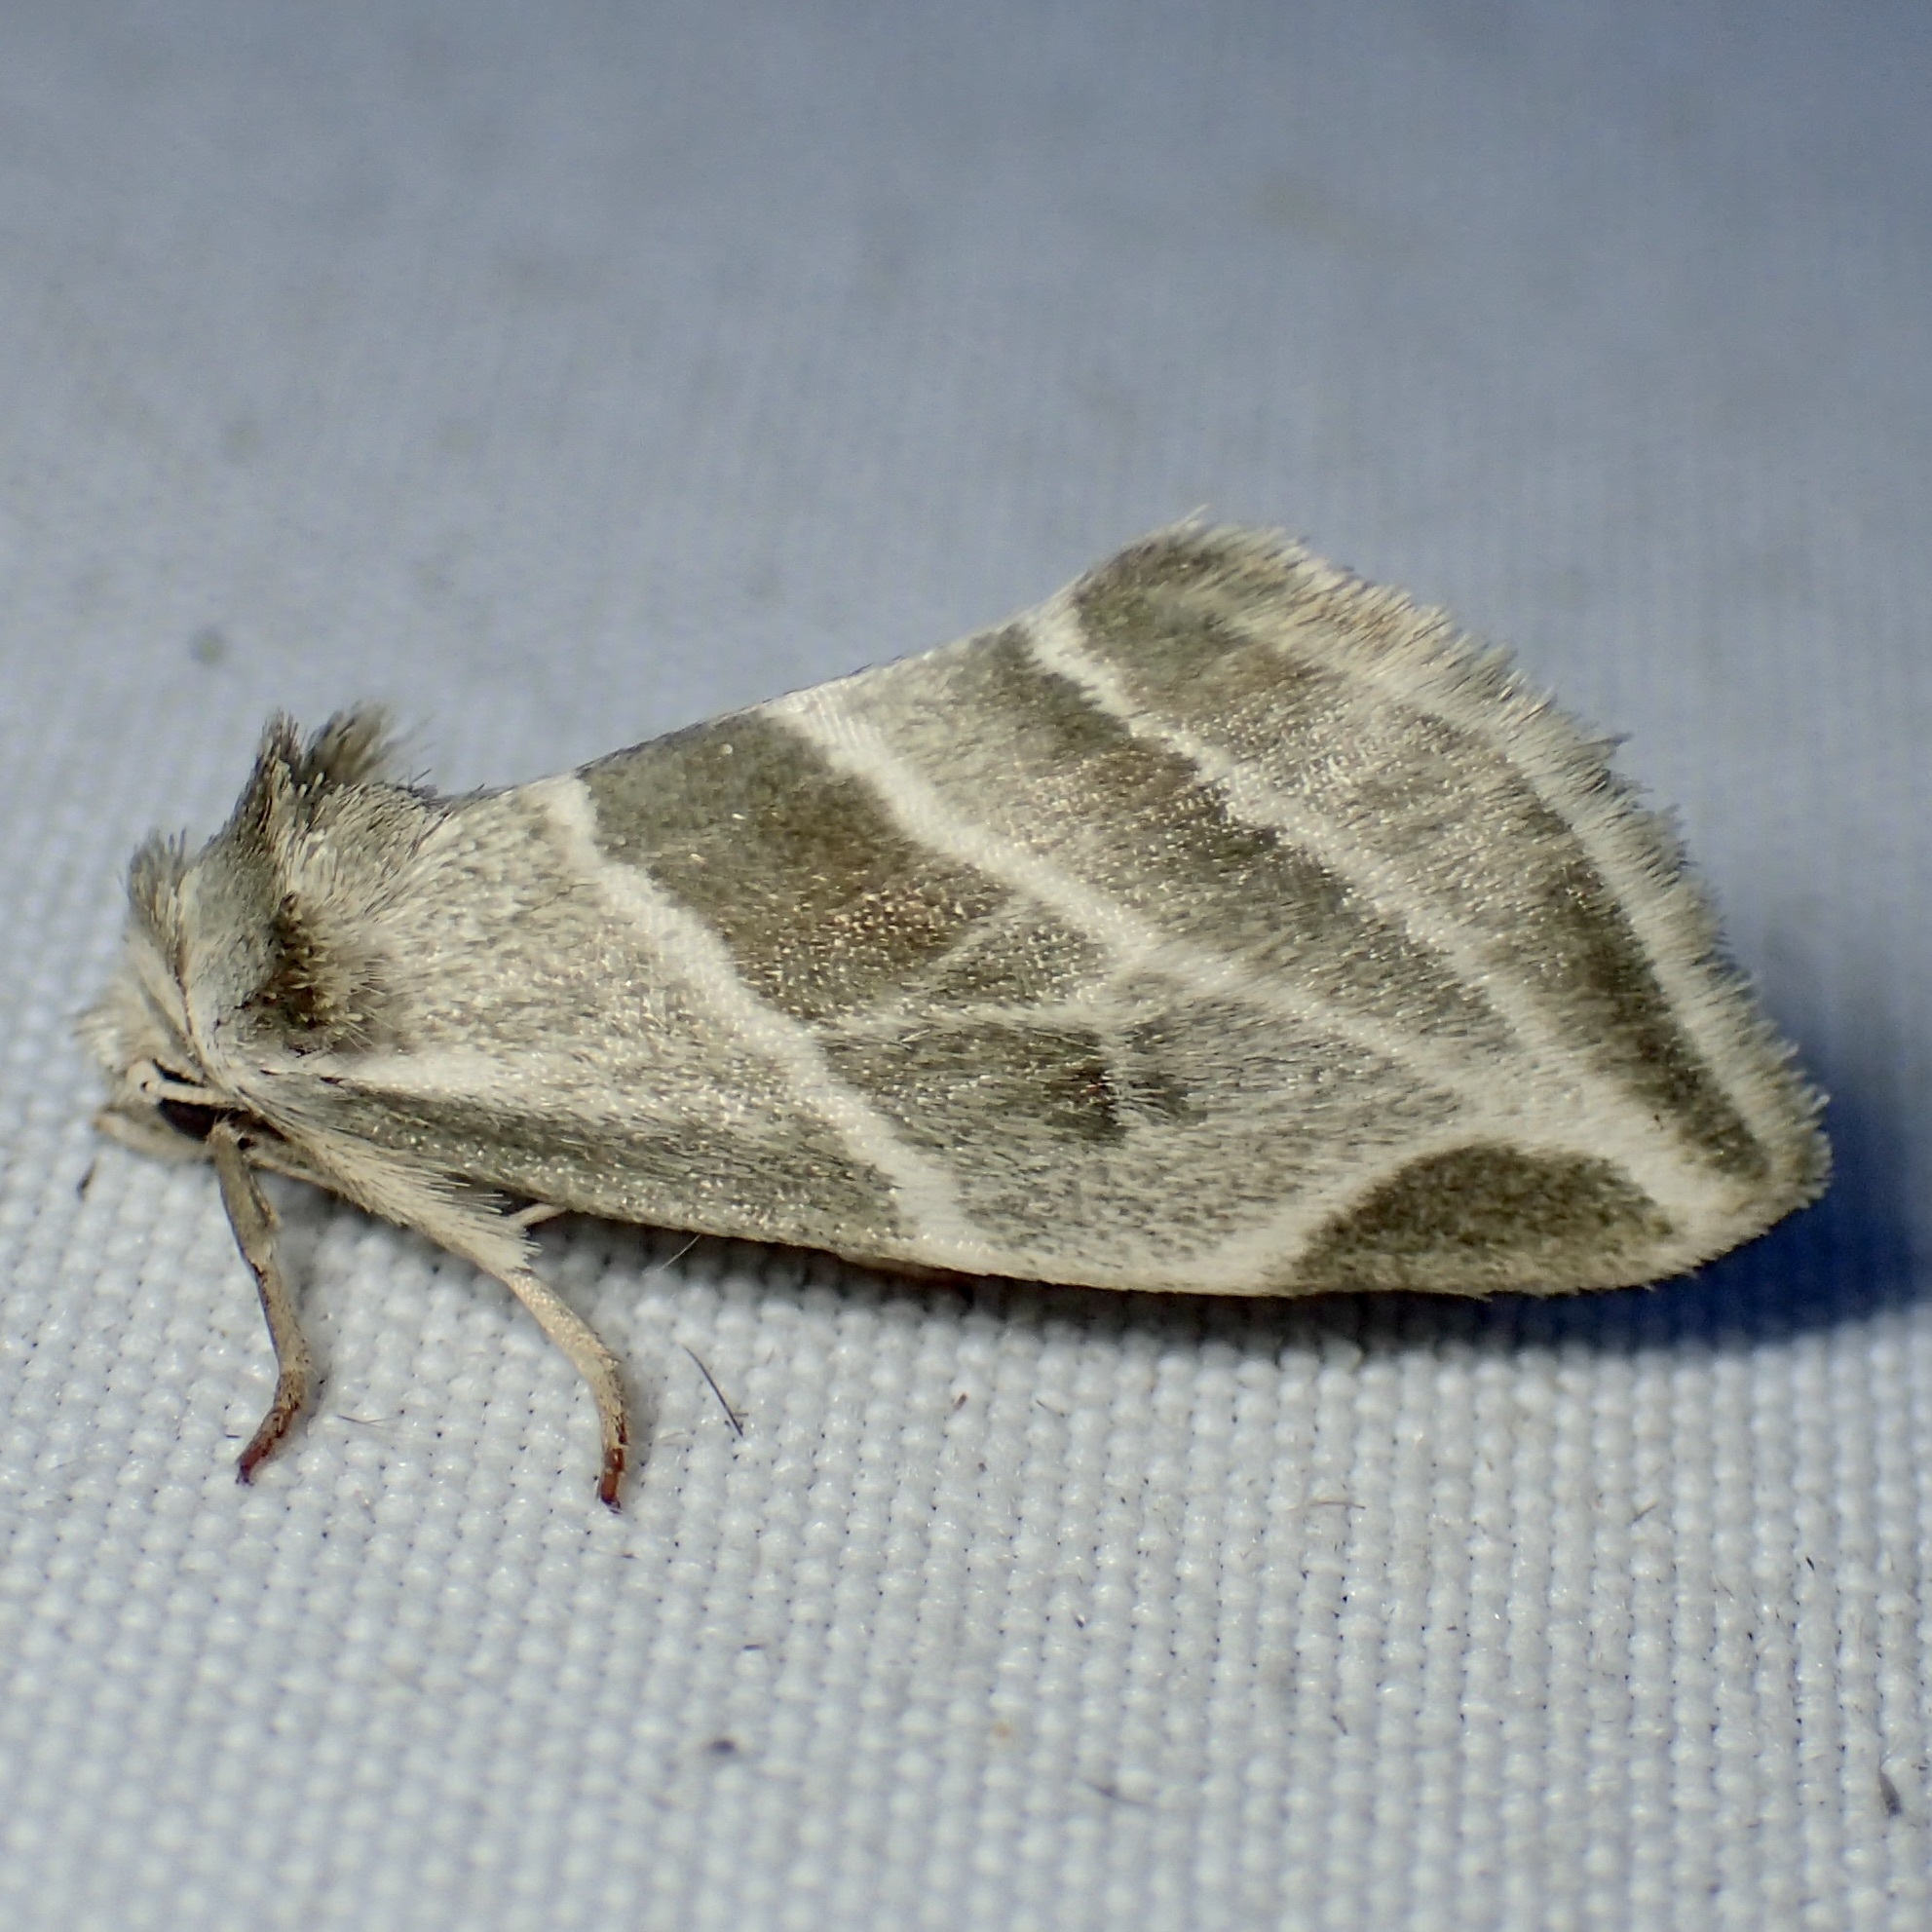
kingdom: Animalia
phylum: Arthropoda
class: Insecta
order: Lepidoptera
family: Noctuidae
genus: Plagiomimicus
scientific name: Plagiomimicus tepperi
